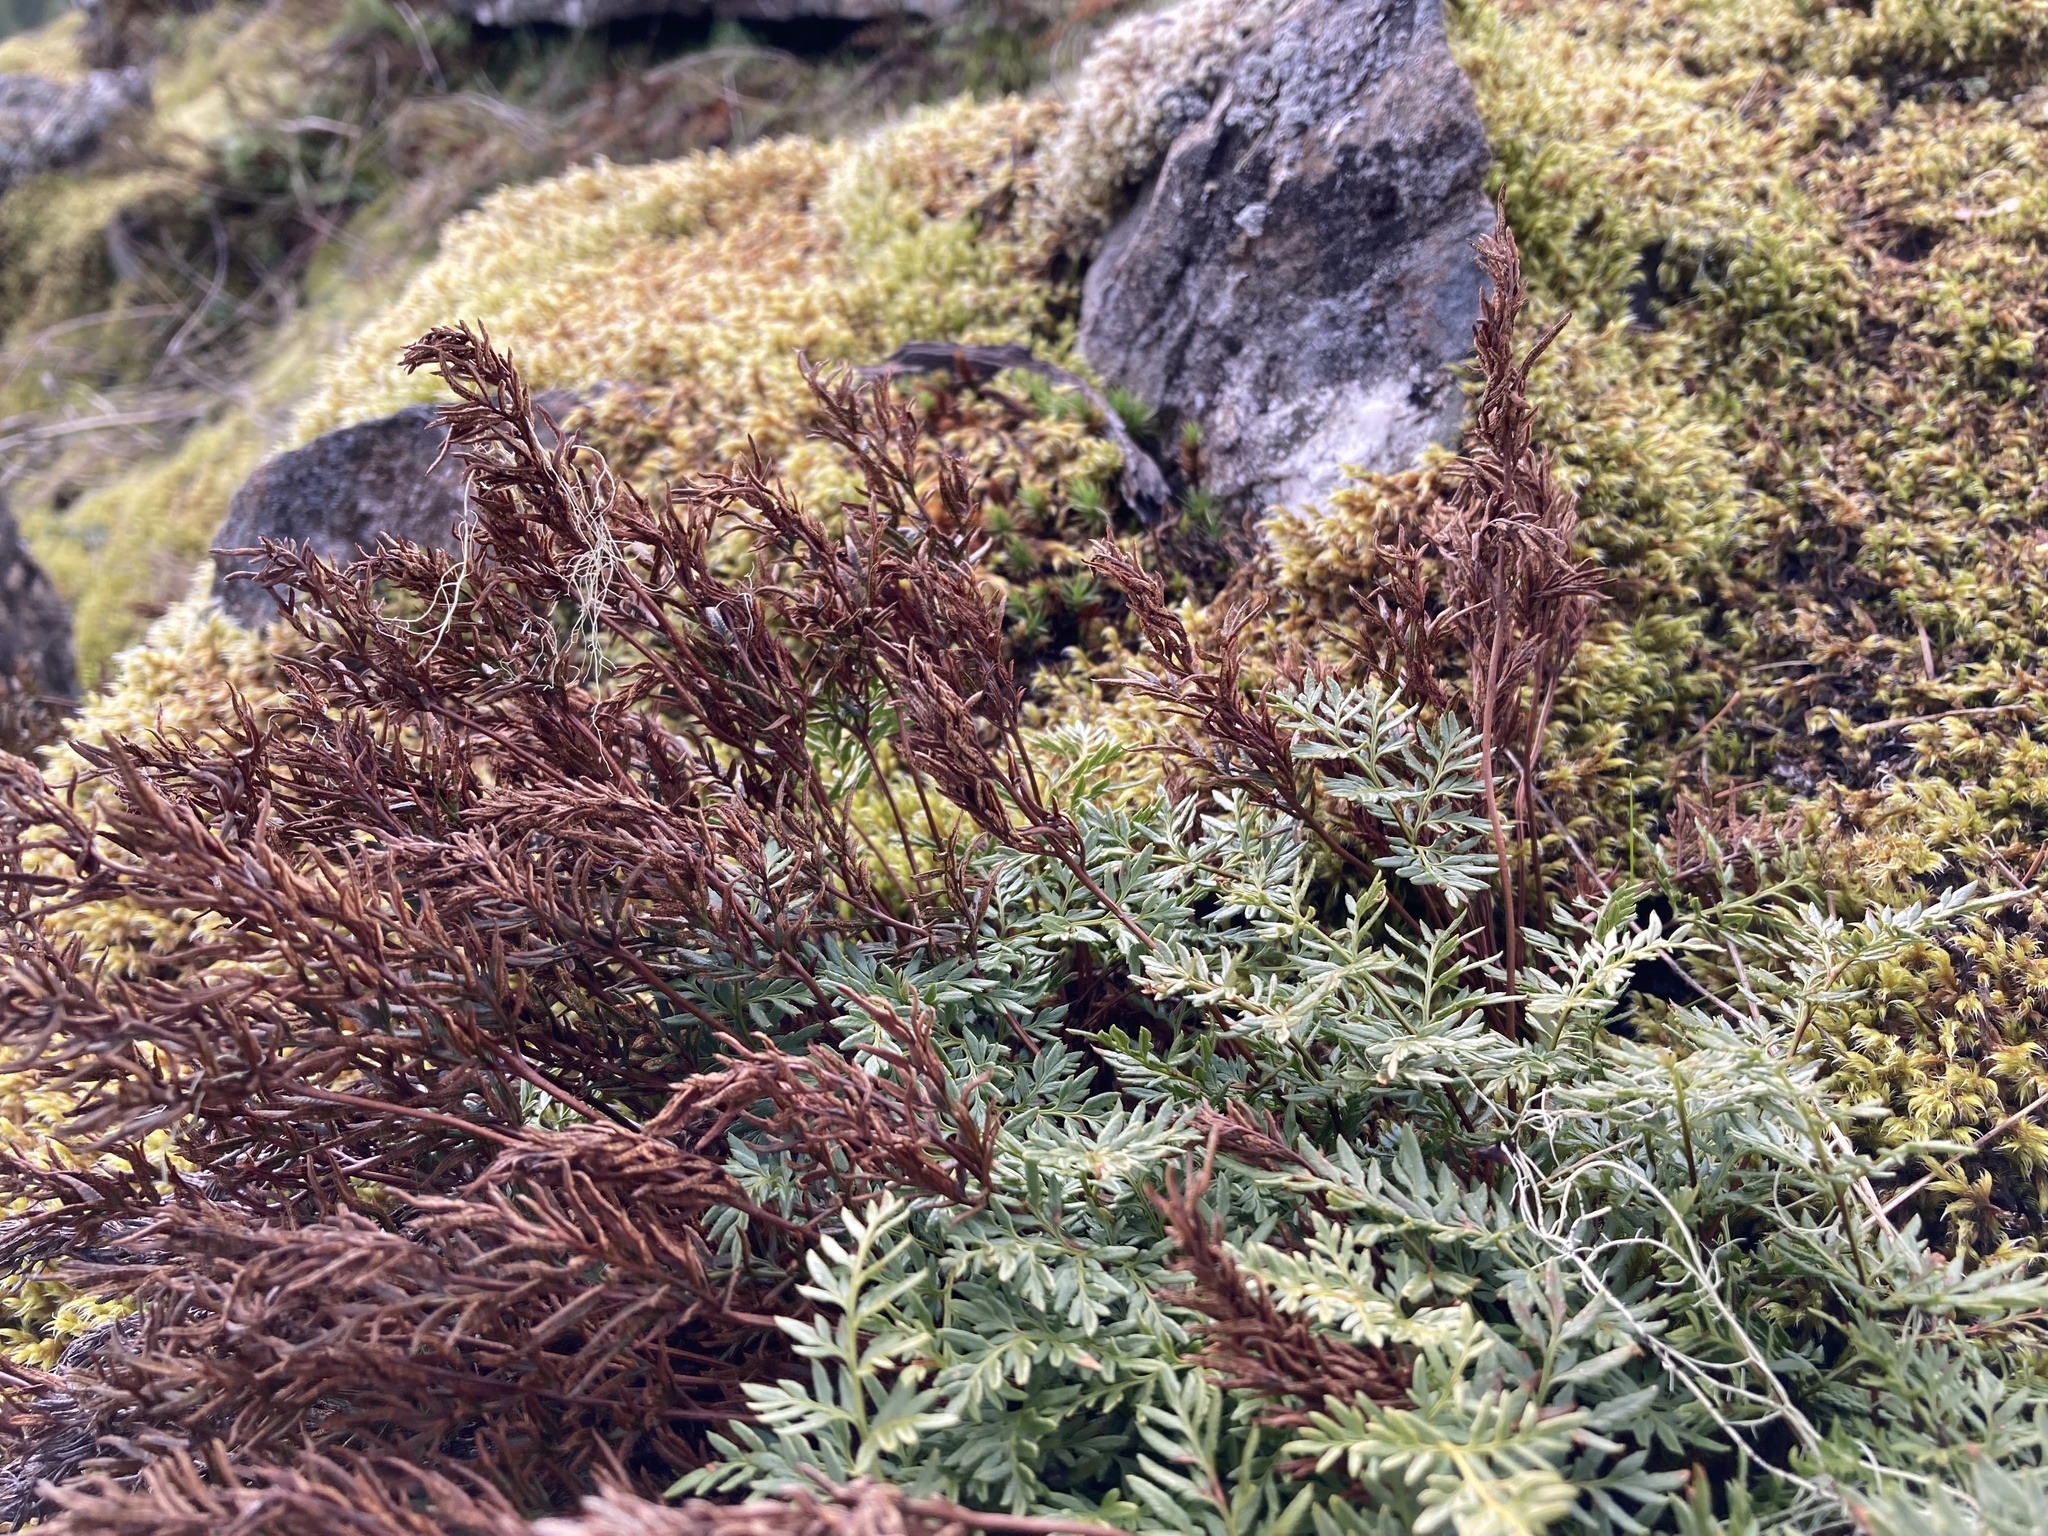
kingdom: Plantae
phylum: Tracheophyta
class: Polypodiopsida
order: Polypodiales
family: Pteridaceae
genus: Aspidotis
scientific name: Aspidotis densa
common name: Indian's dream
